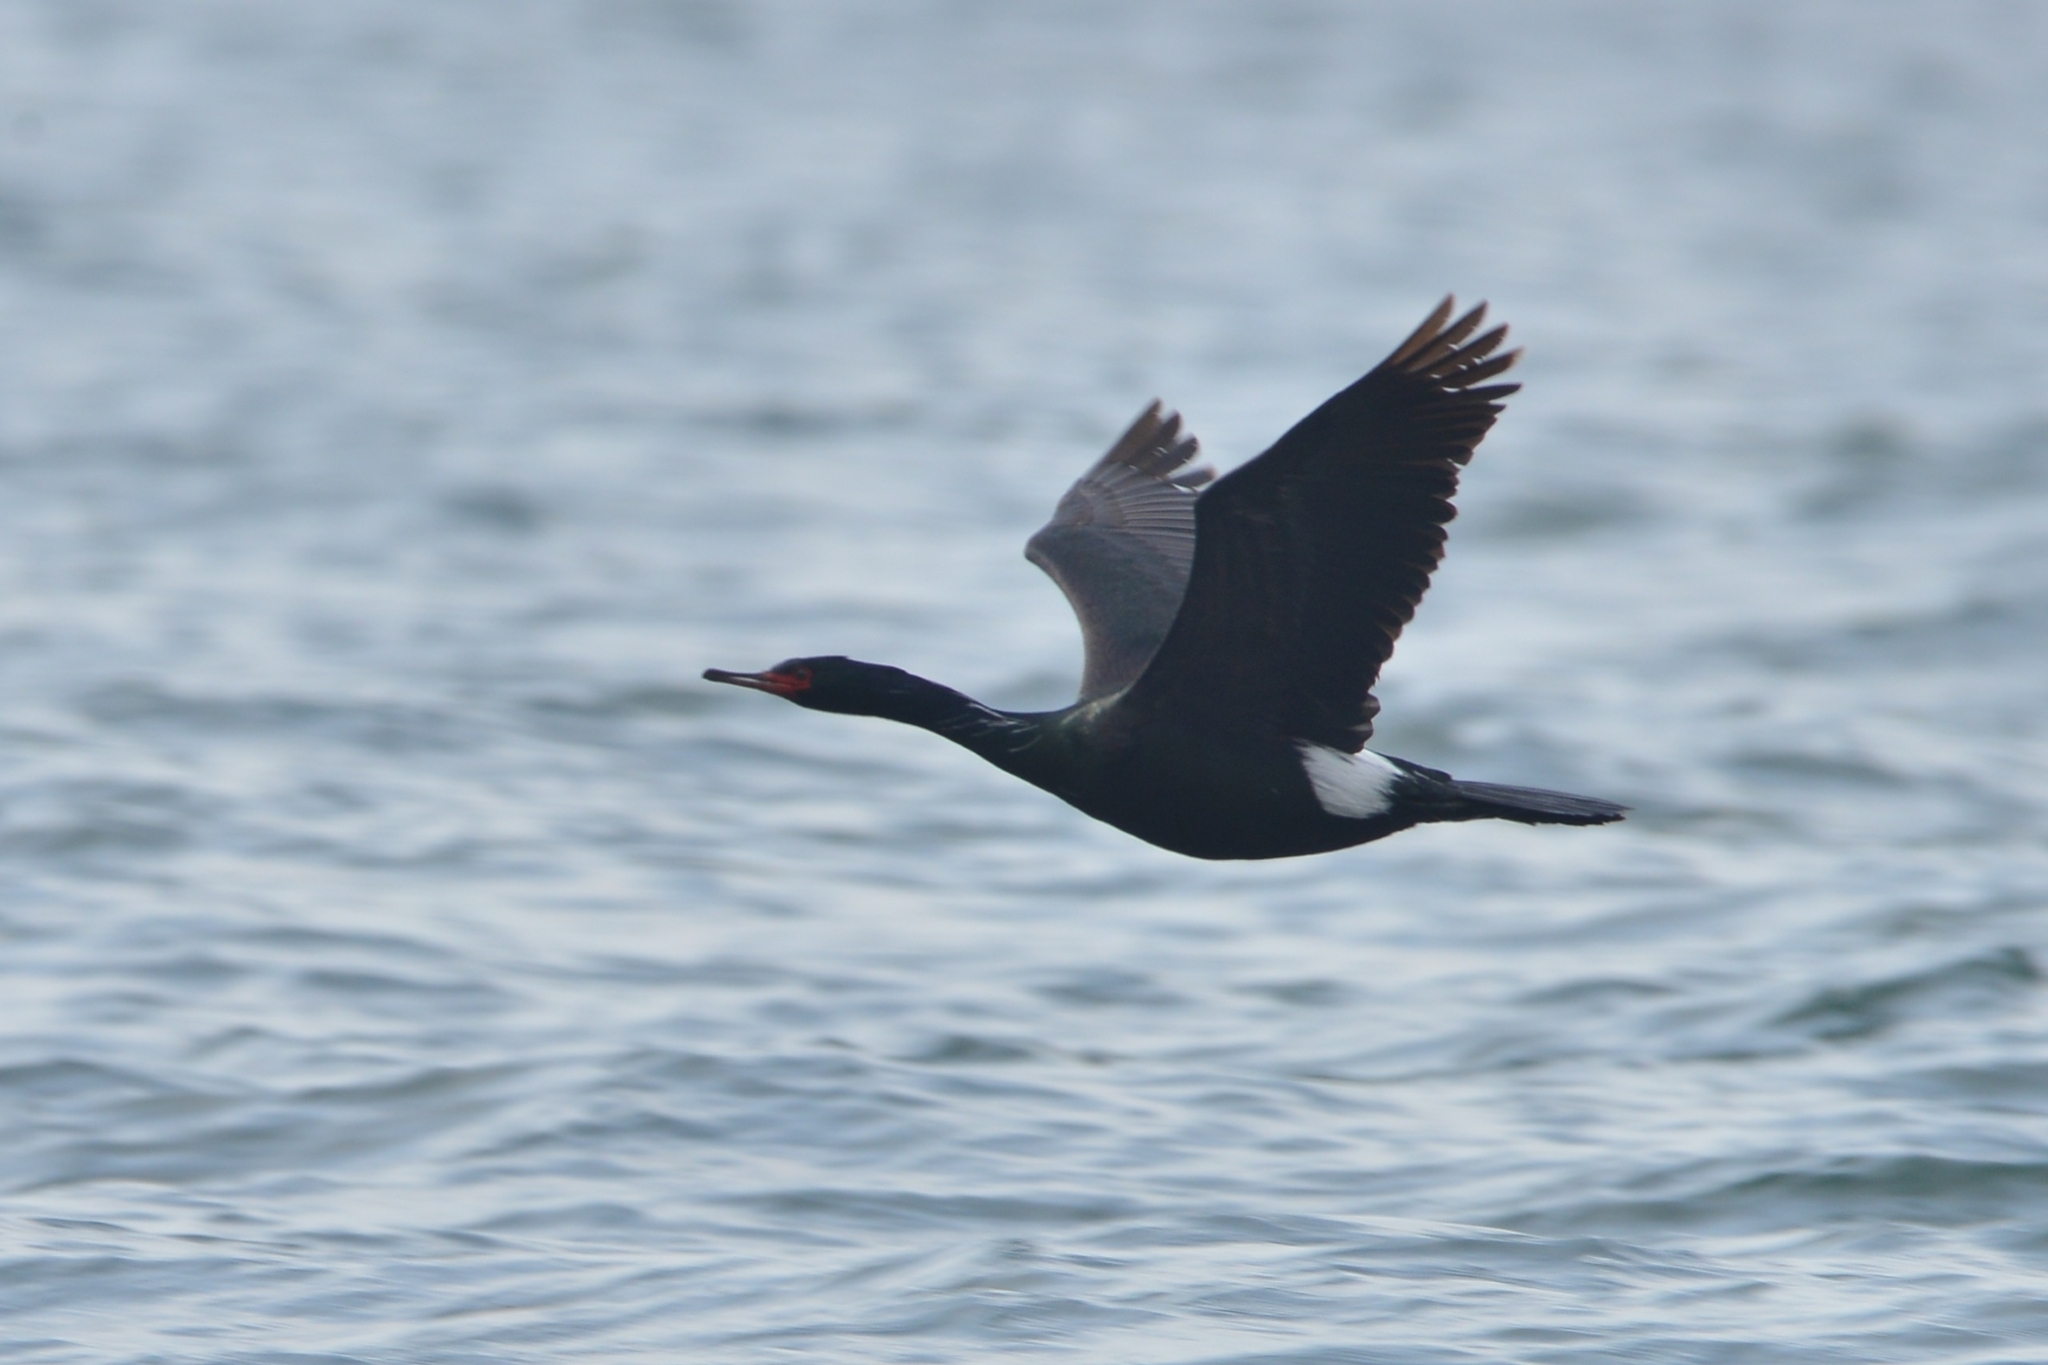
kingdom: Animalia
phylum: Chordata
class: Aves
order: Suliformes
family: Phalacrocoracidae
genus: Phalacrocorax
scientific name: Phalacrocorax pelagicus
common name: Pelagic cormorant
